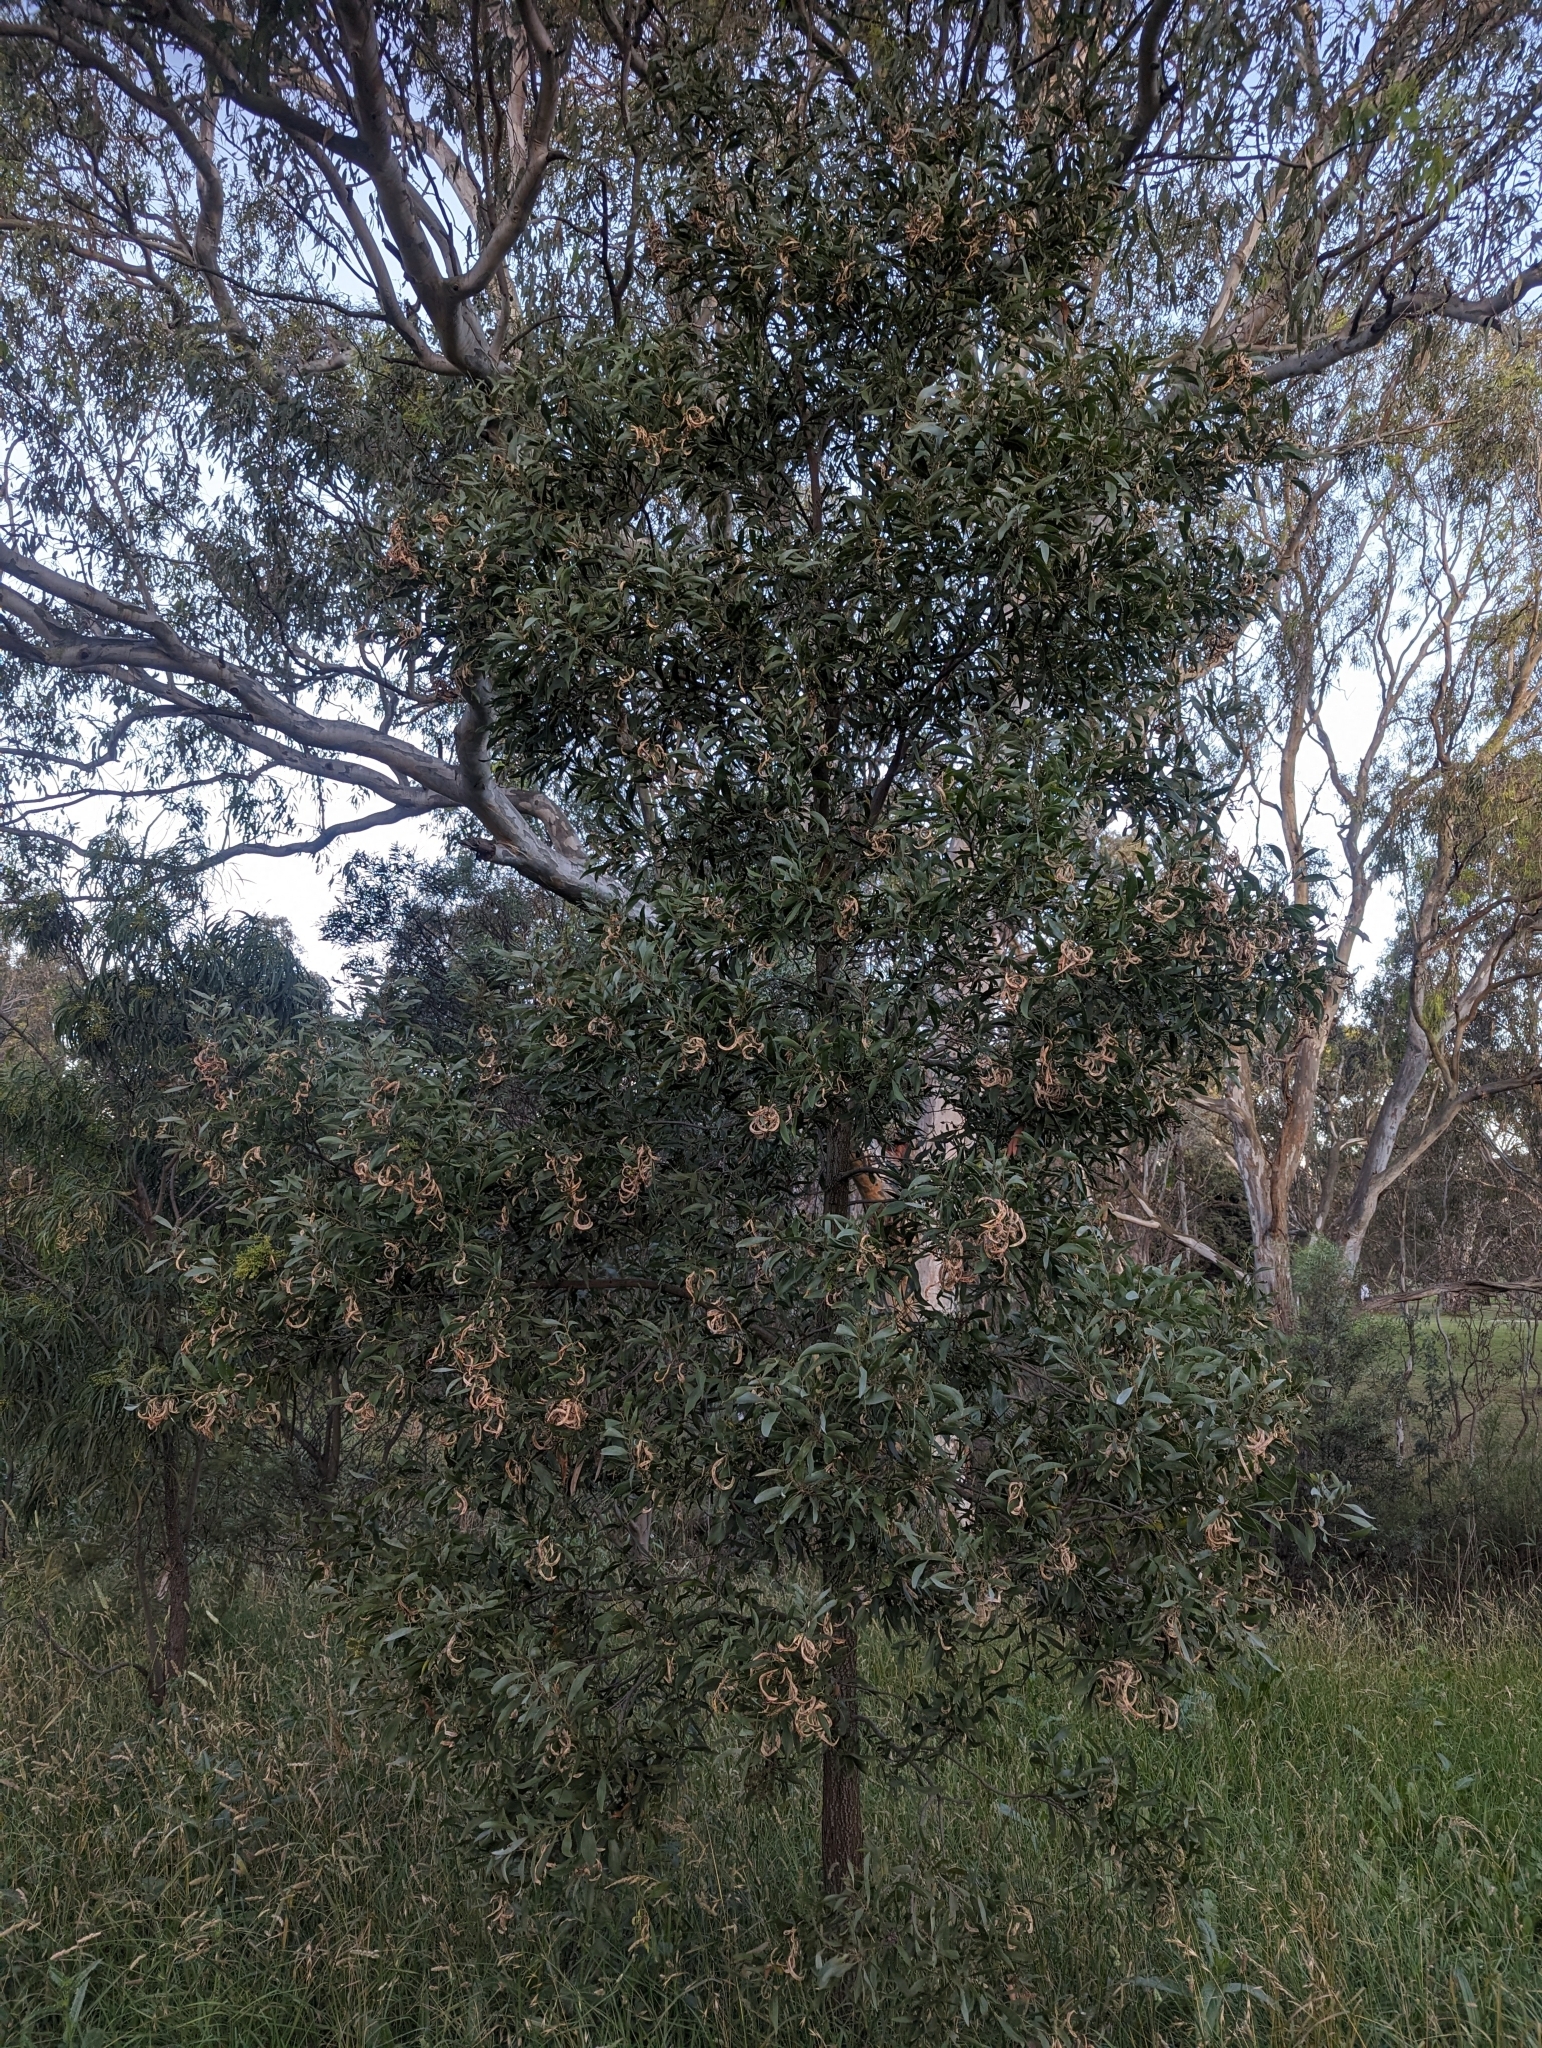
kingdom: Plantae
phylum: Tracheophyta
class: Magnoliopsida
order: Fabales
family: Fabaceae
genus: Acacia
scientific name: Acacia melanoxylon
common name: Blackwood
